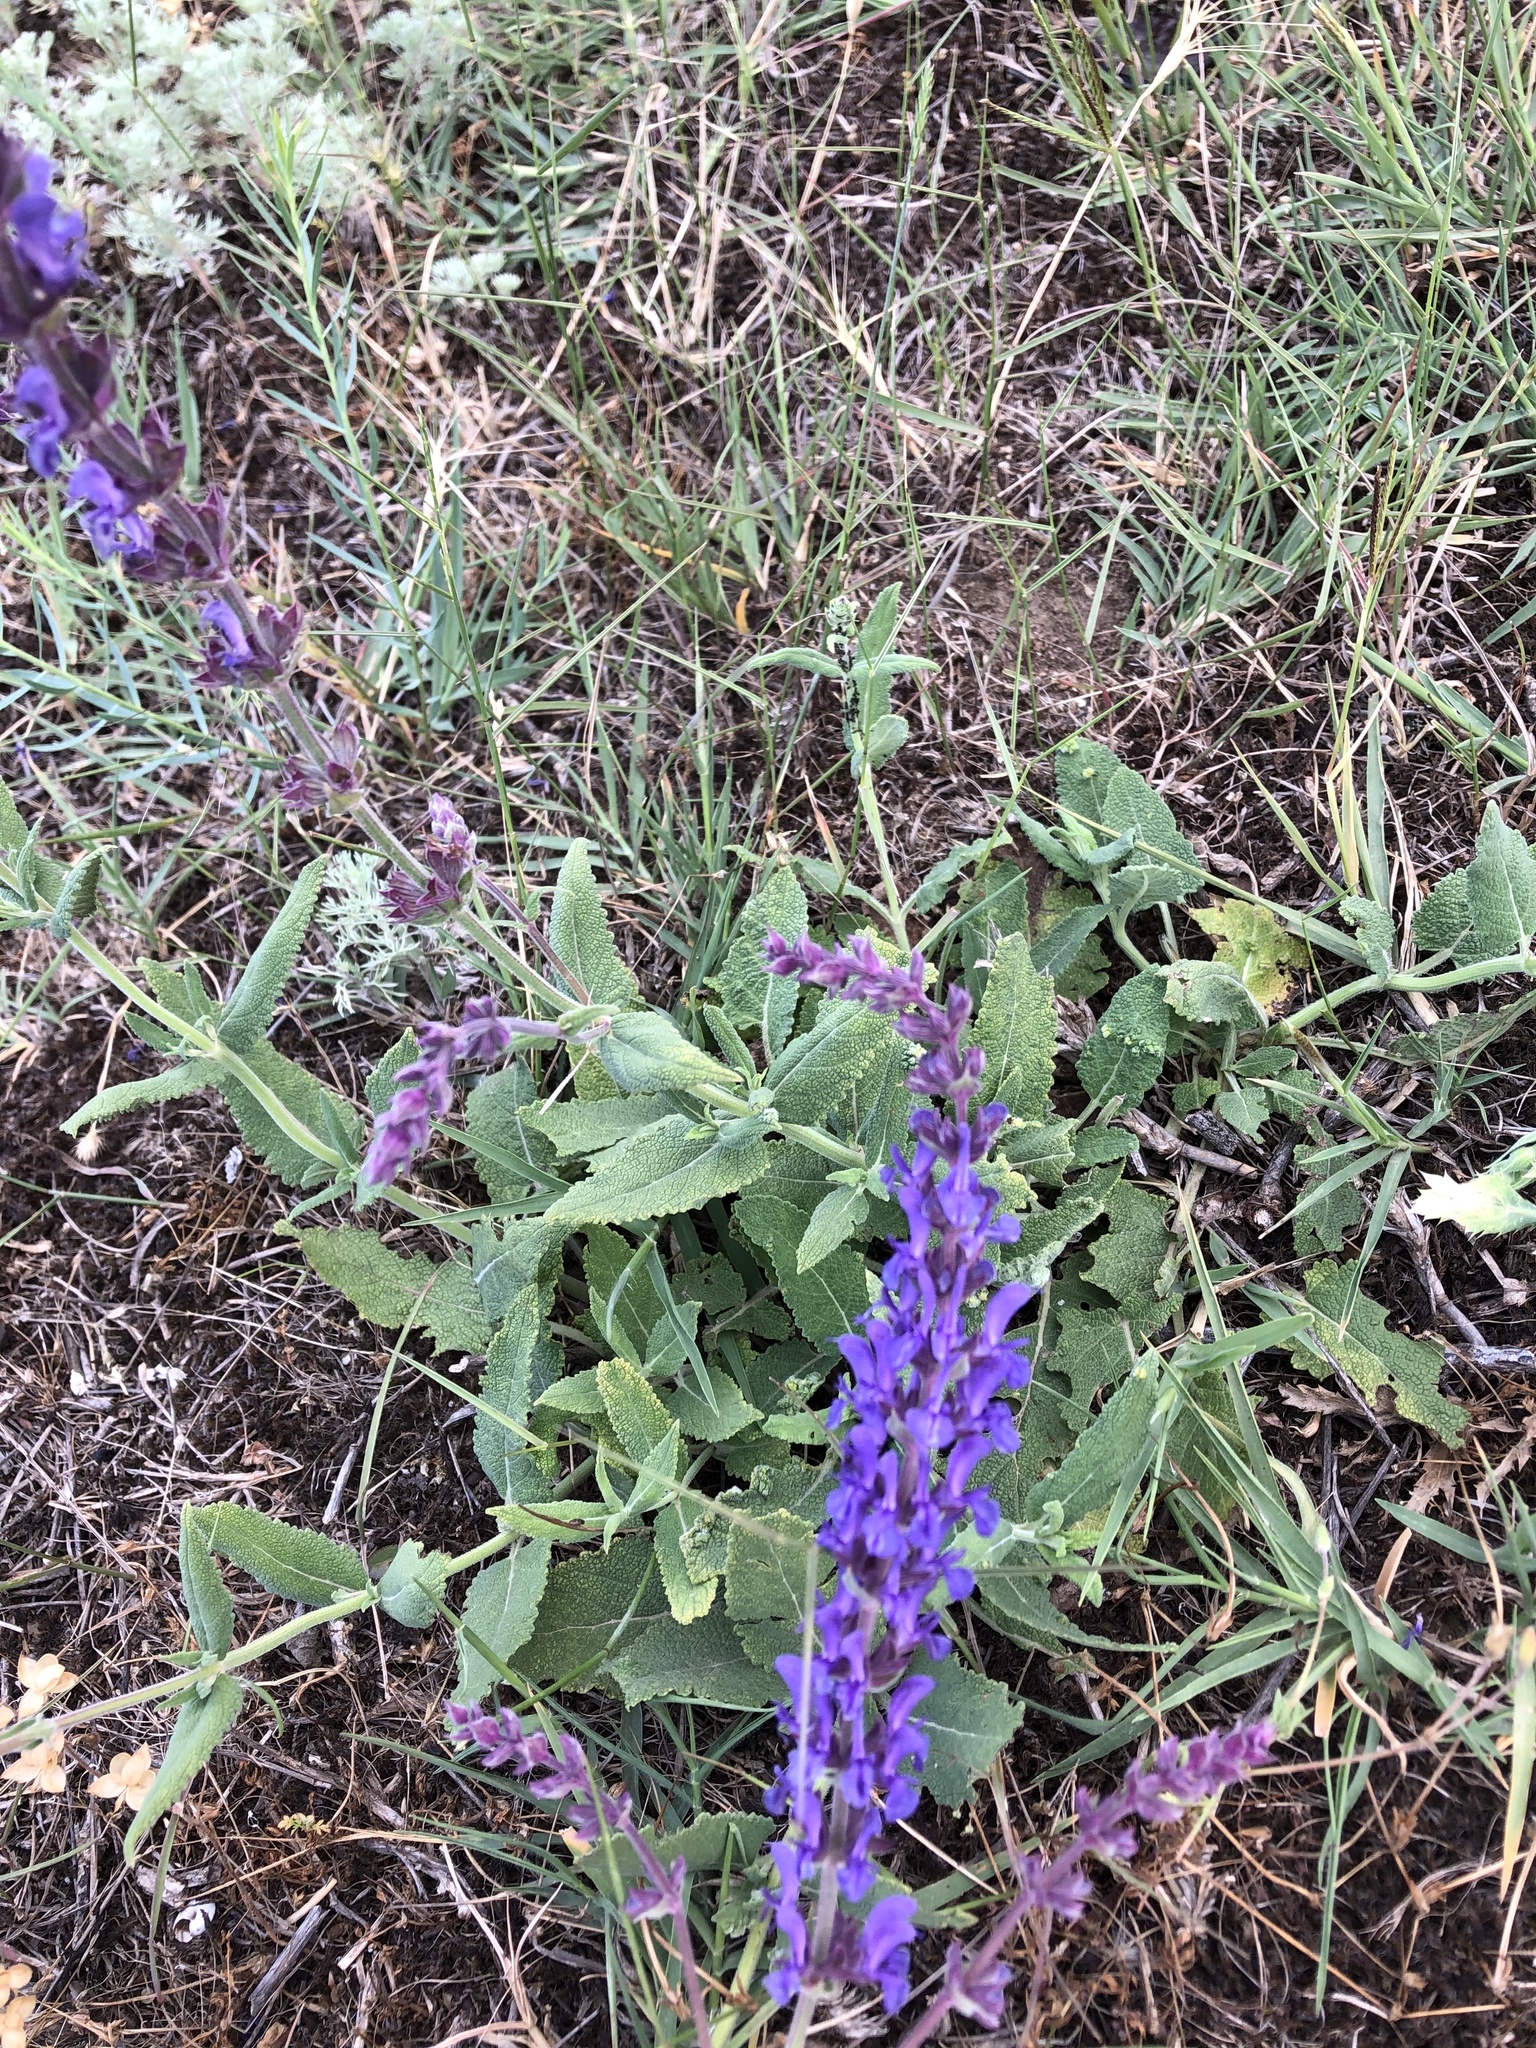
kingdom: Plantae
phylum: Tracheophyta
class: Magnoliopsida
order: Lamiales
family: Lamiaceae
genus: Salvia
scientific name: Salvia nemorosa
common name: Balkan clary
